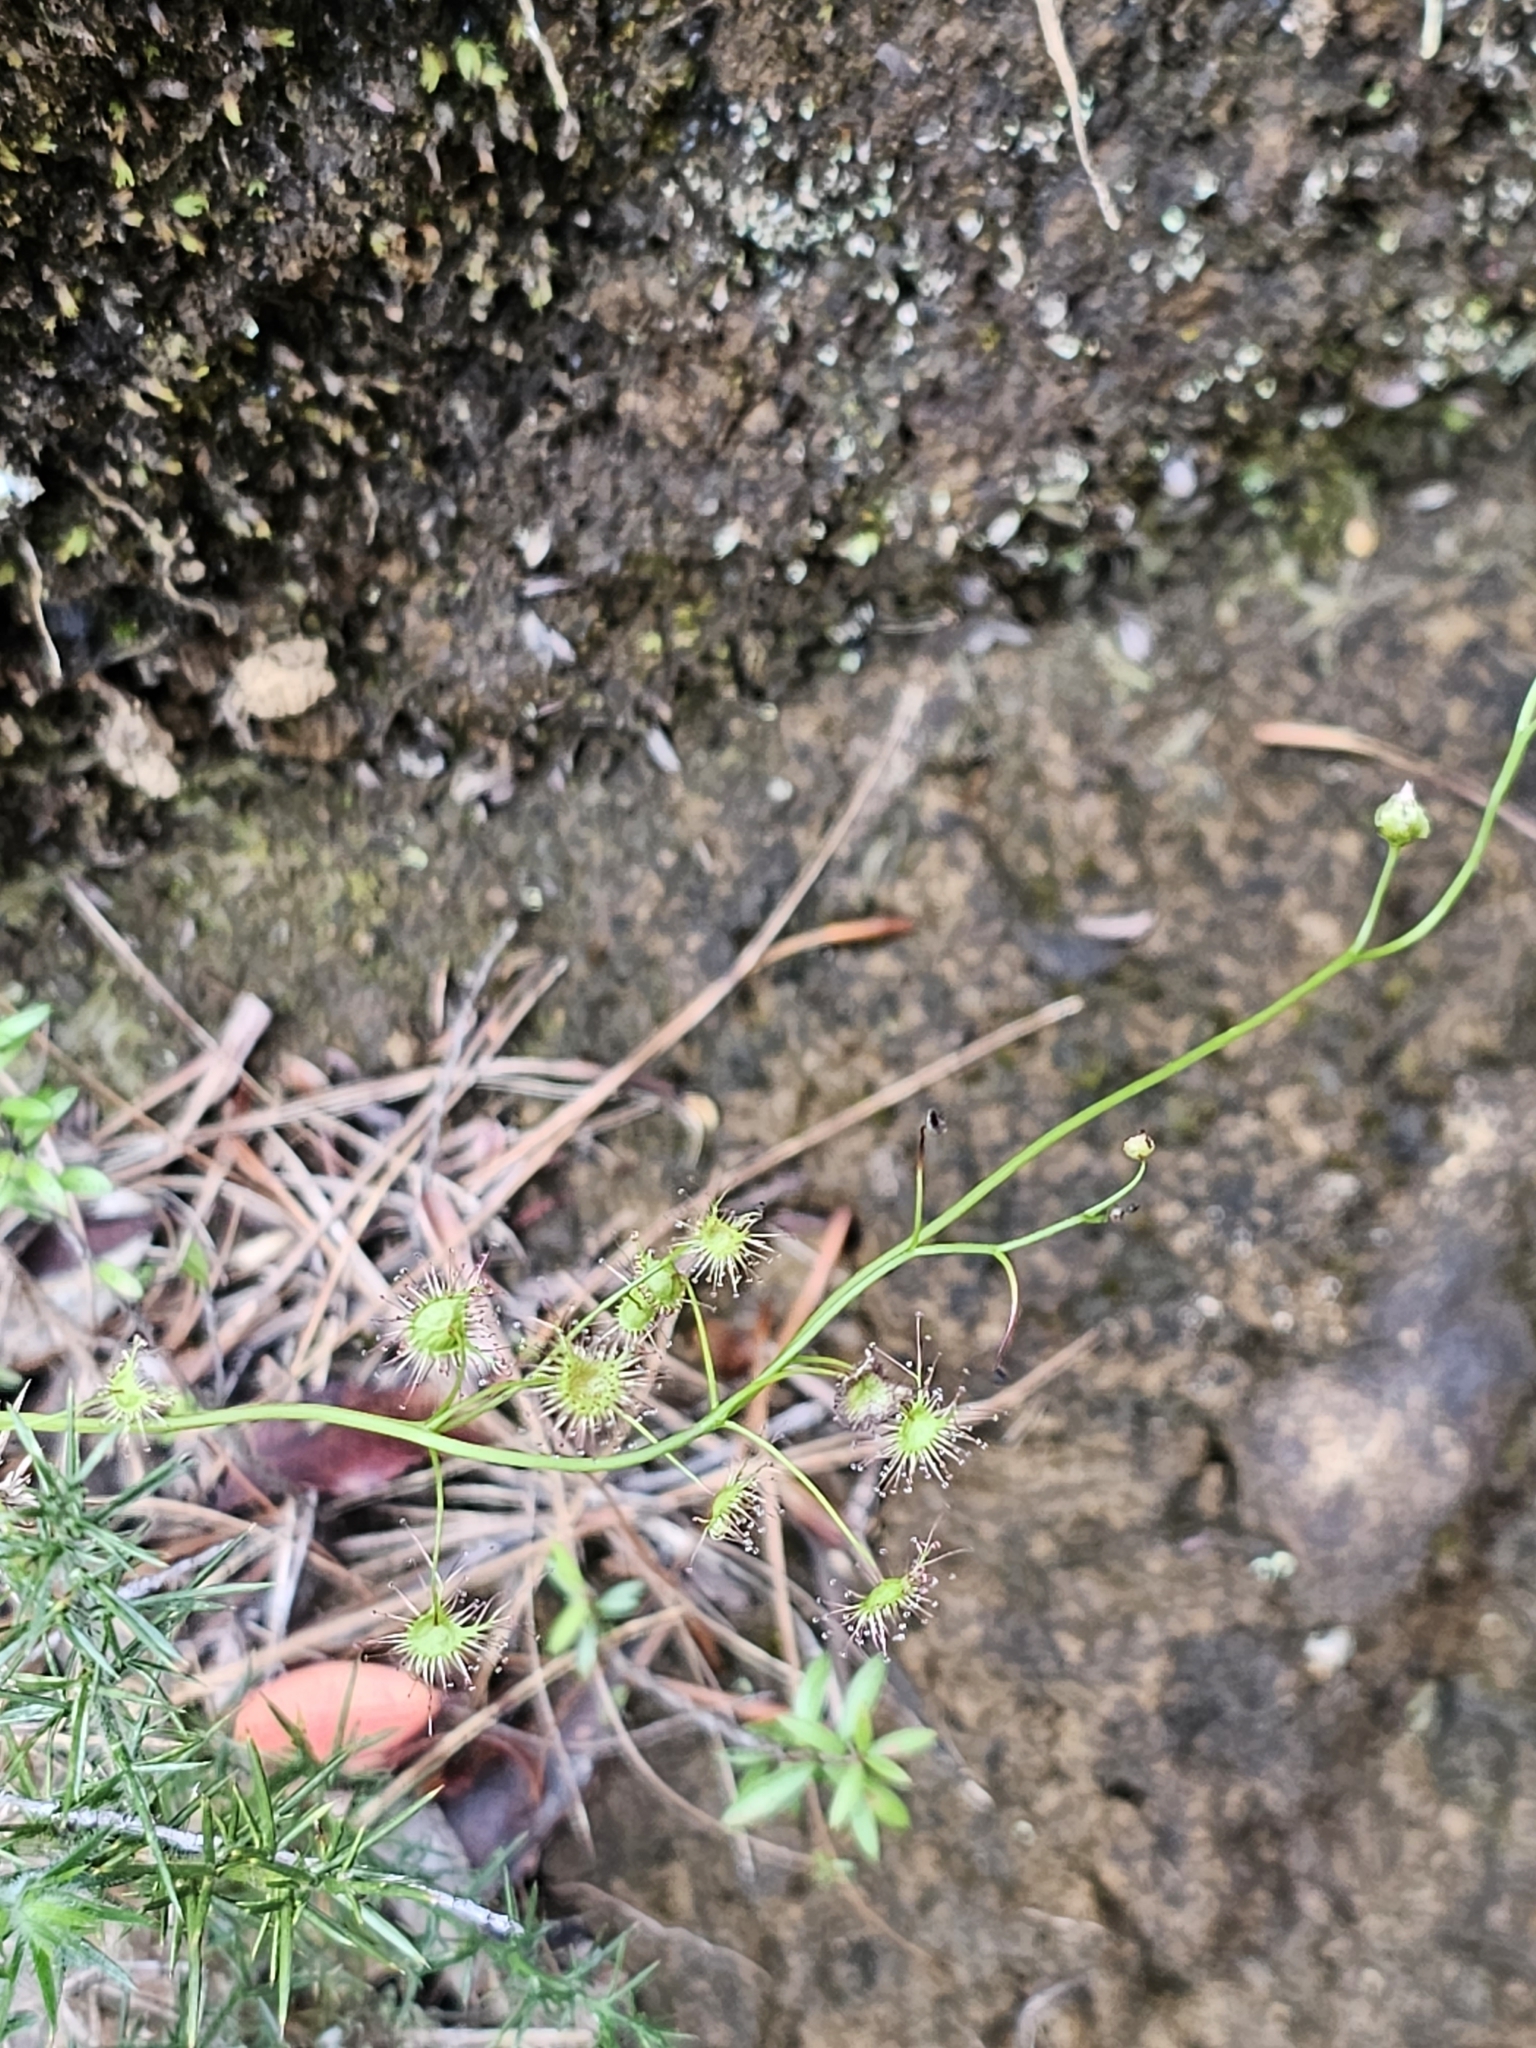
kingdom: Plantae
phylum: Tracheophyta
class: Magnoliopsida
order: Caryophyllales
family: Droseraceae
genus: Drosera
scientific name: Drosera peltata
